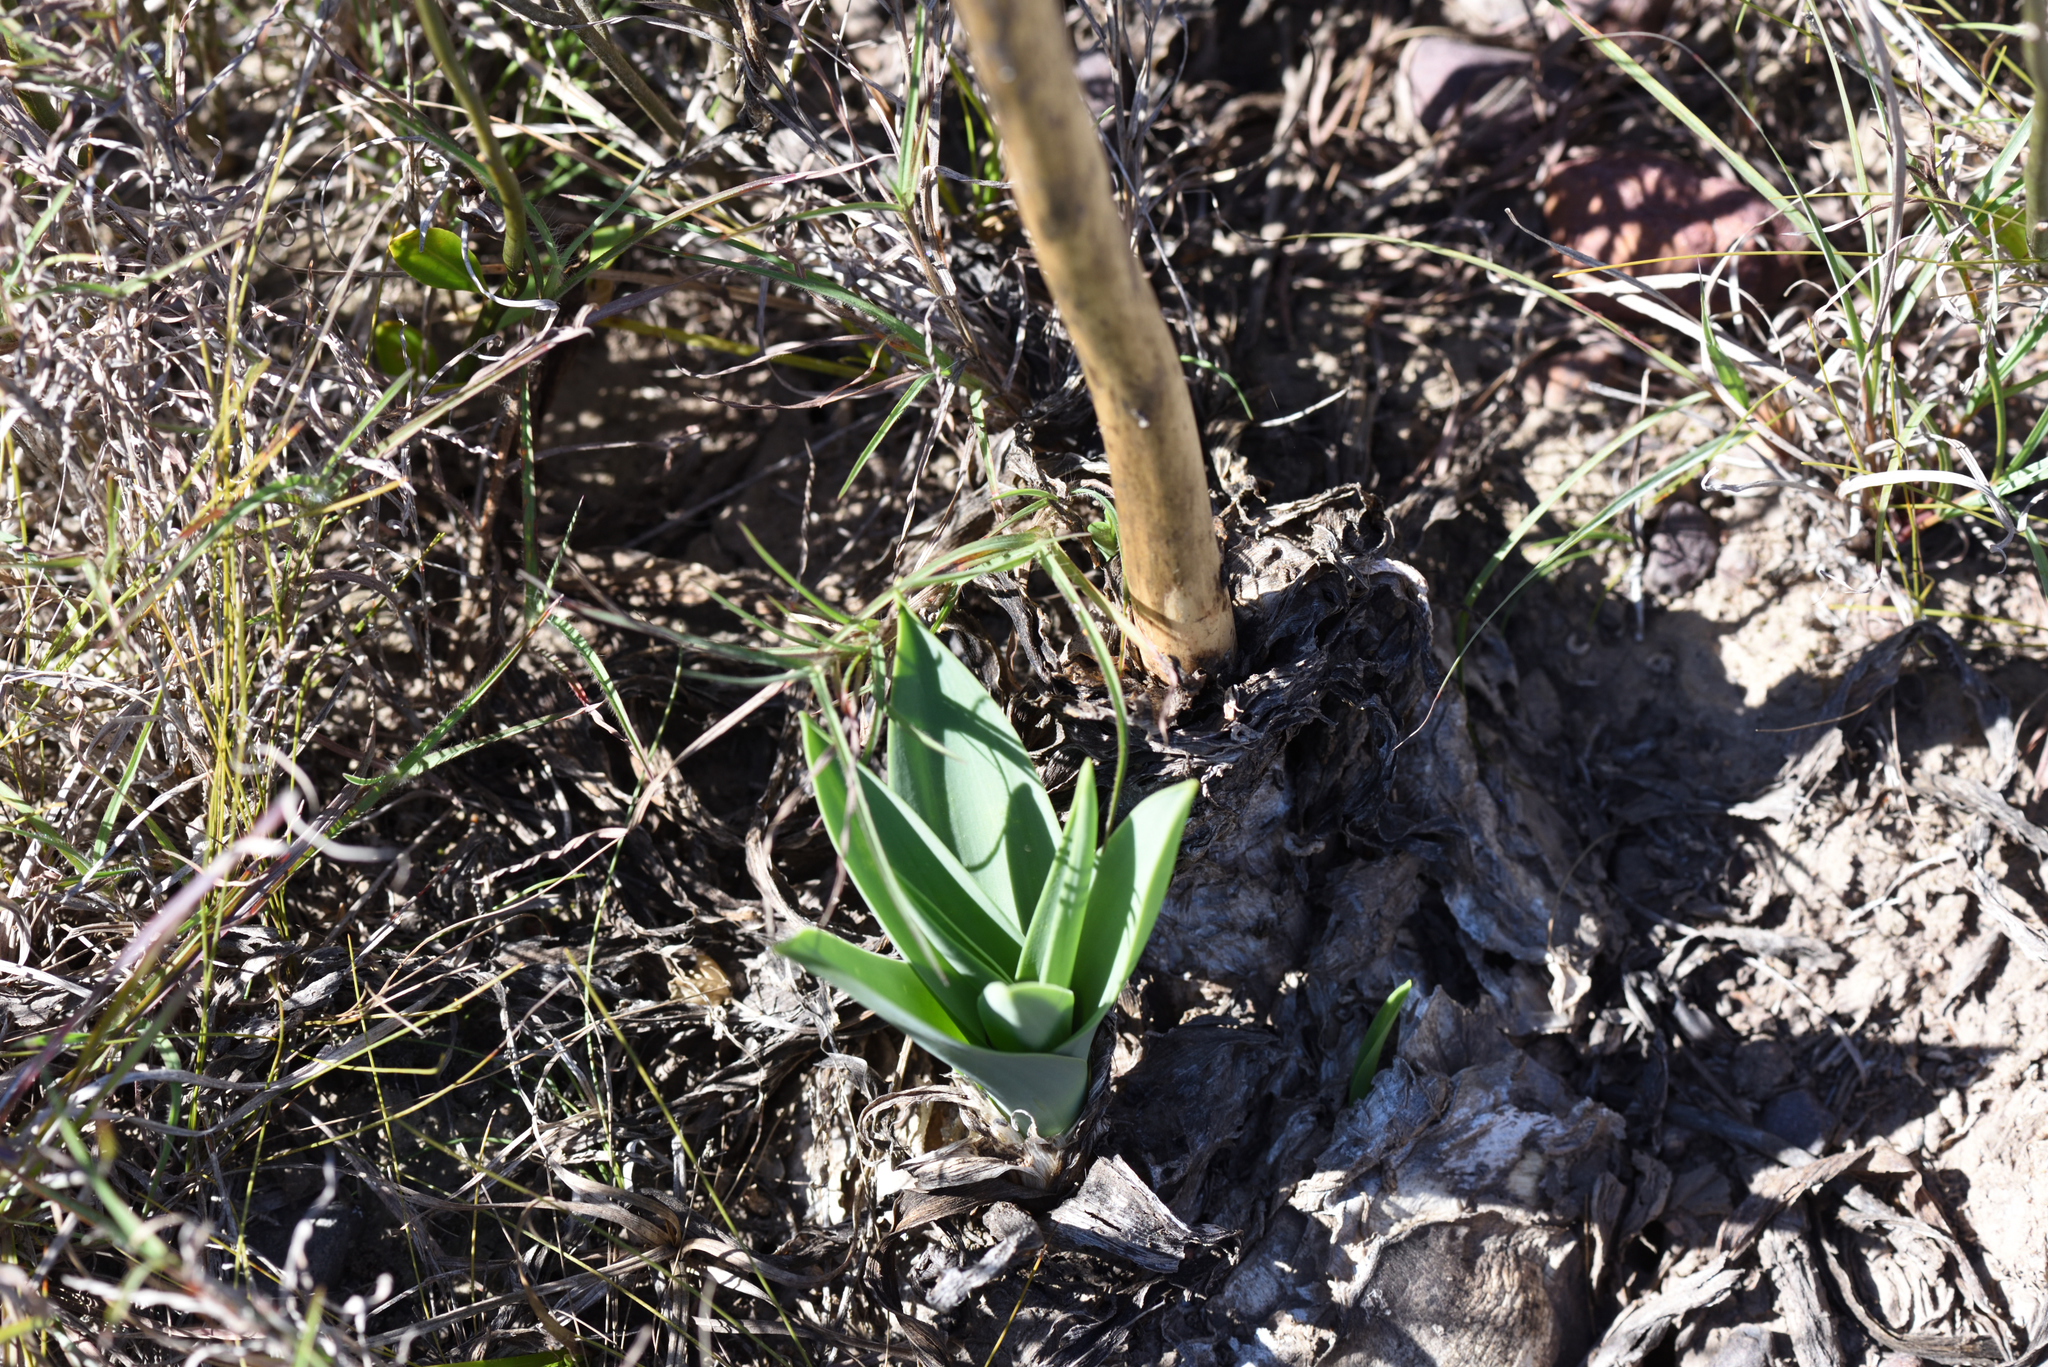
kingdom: Plantae
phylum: Tracheophyta
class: Liliopsida
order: Asparagales
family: Asparagaceae
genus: Drimia
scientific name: Drimia capensis
